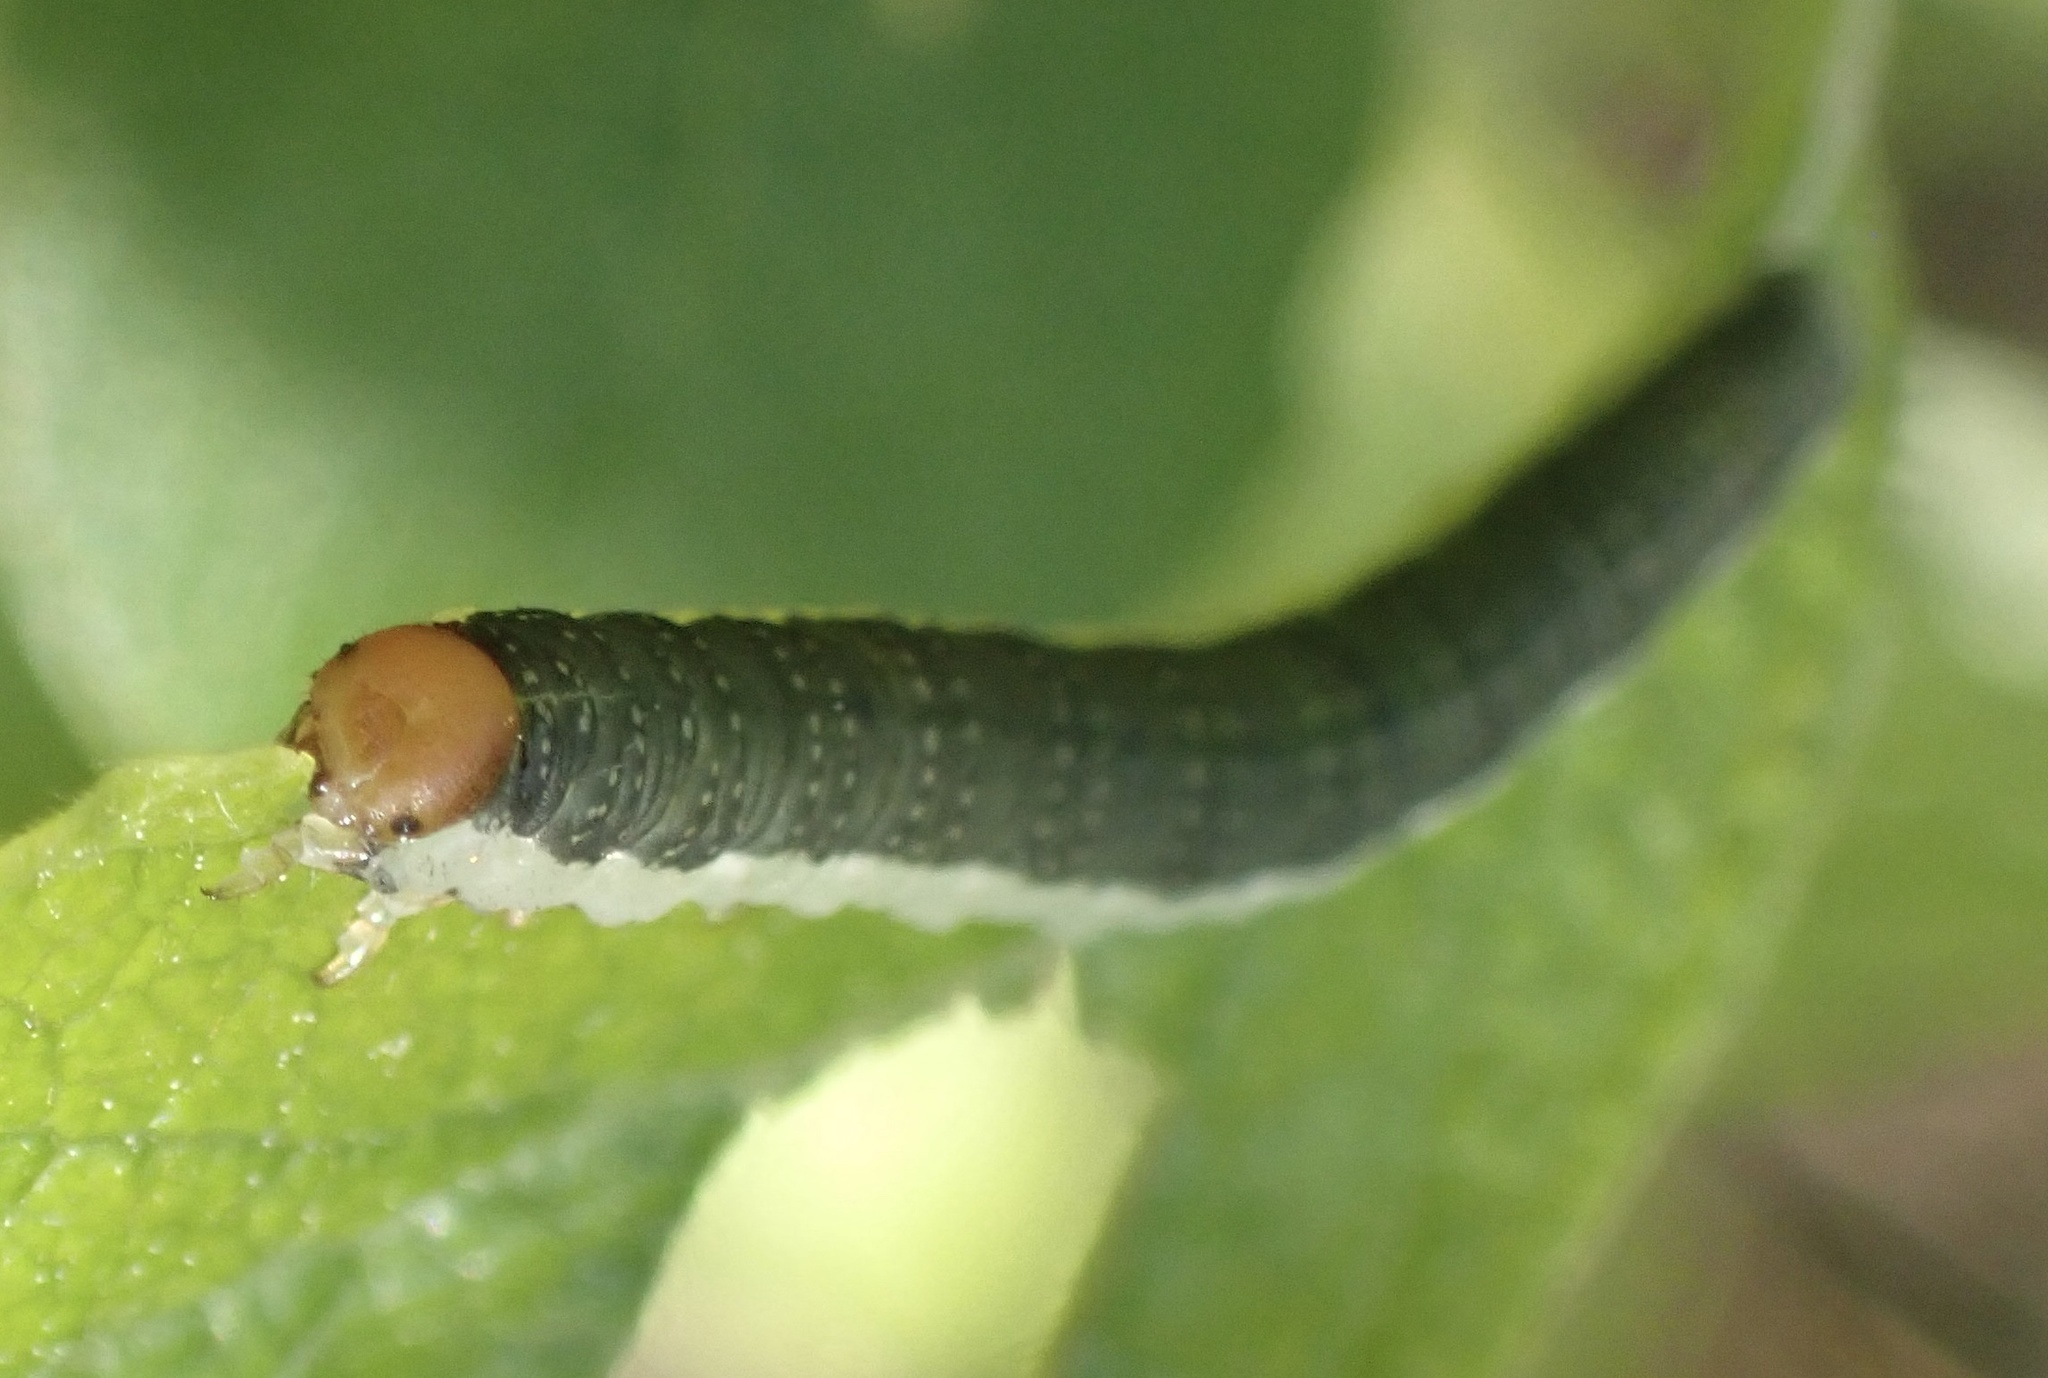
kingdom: Animalia
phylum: Arthropoda
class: Insecta
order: Hymenoptera
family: Tenthredinidae
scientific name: Tenthredinidae
